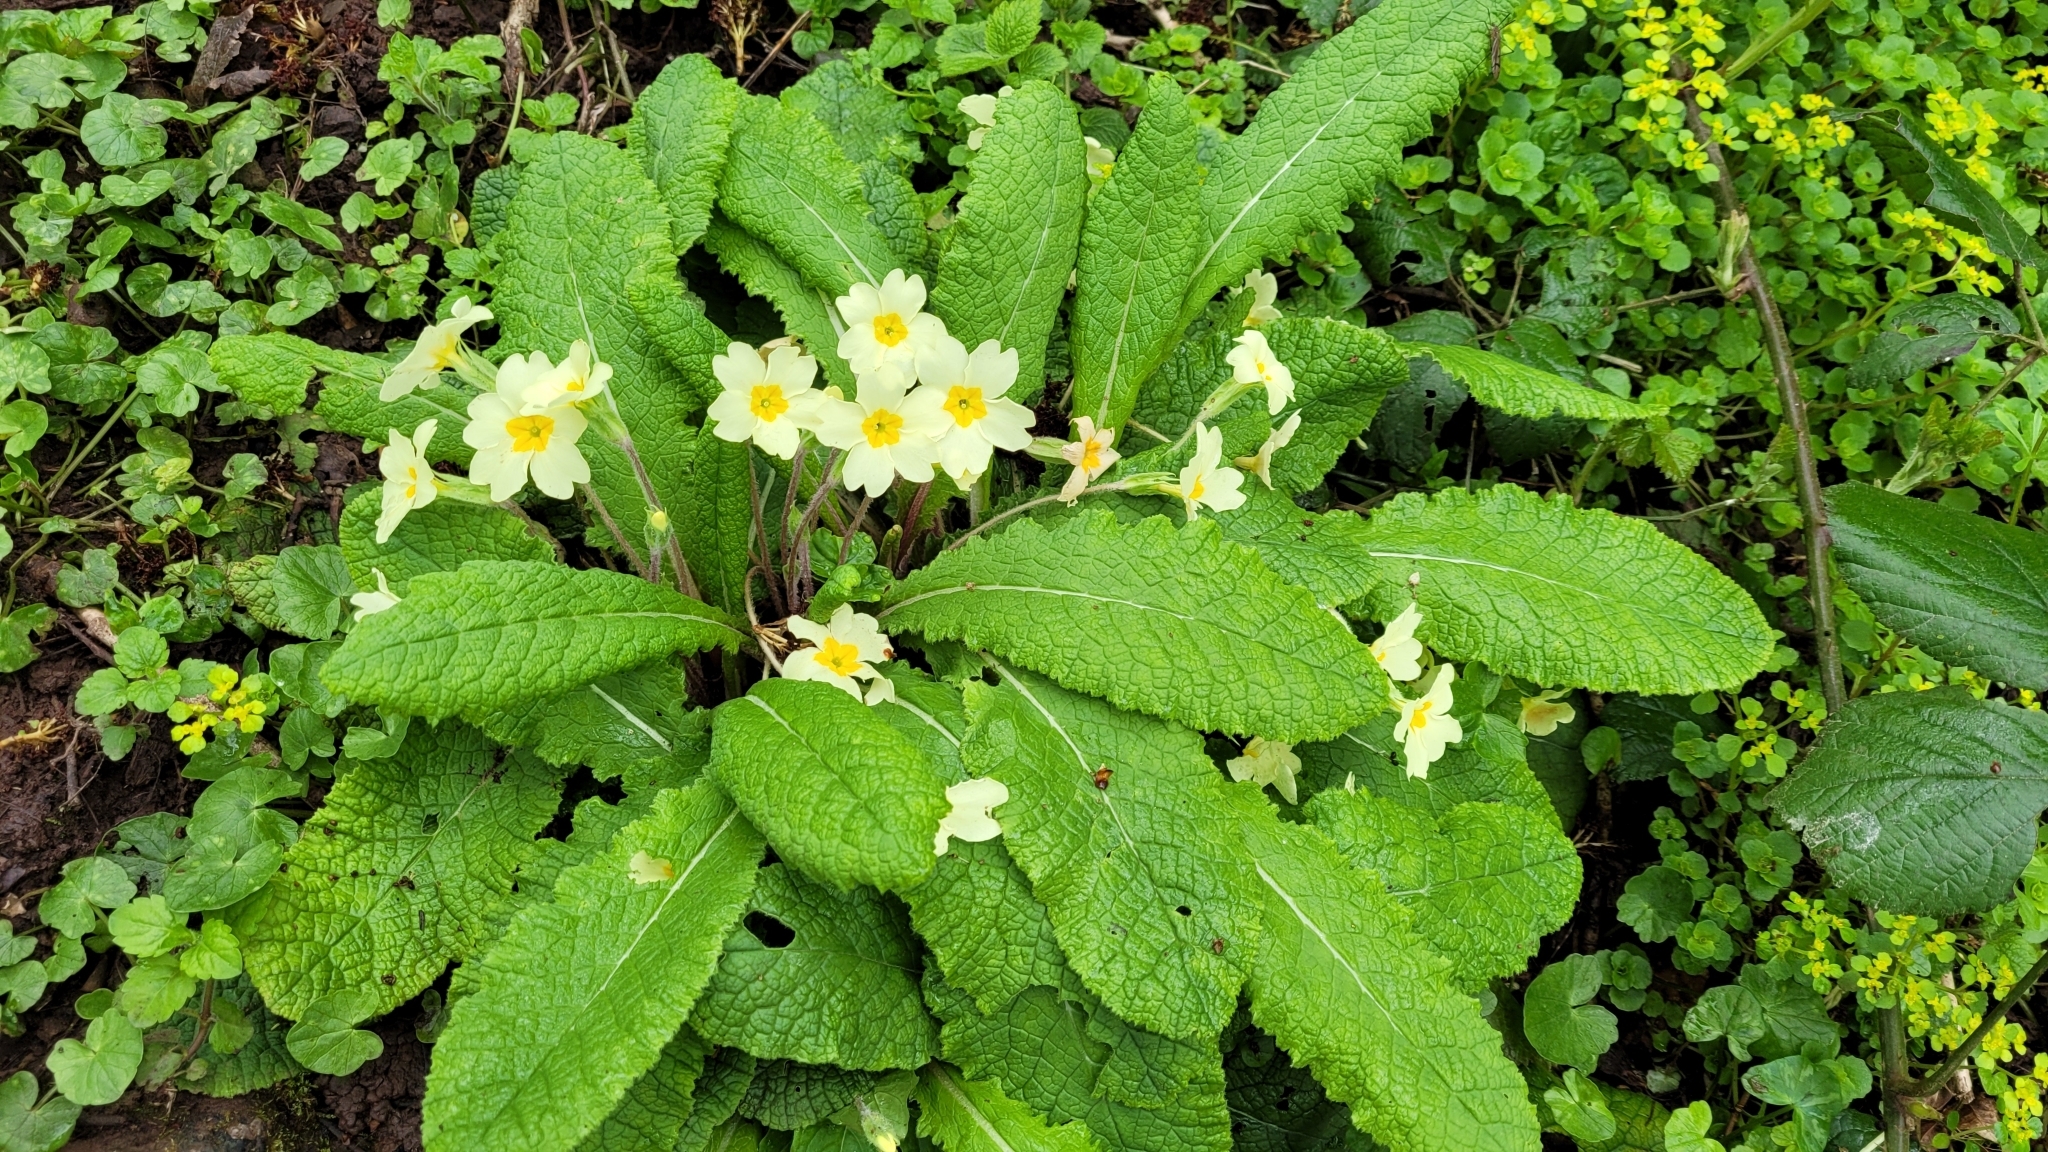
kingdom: Plantae
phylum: Tracheophyta
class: Magnoliopsida
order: Ericales
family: Primulaceae
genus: Primula
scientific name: Primula vulgaris
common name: Primrose
